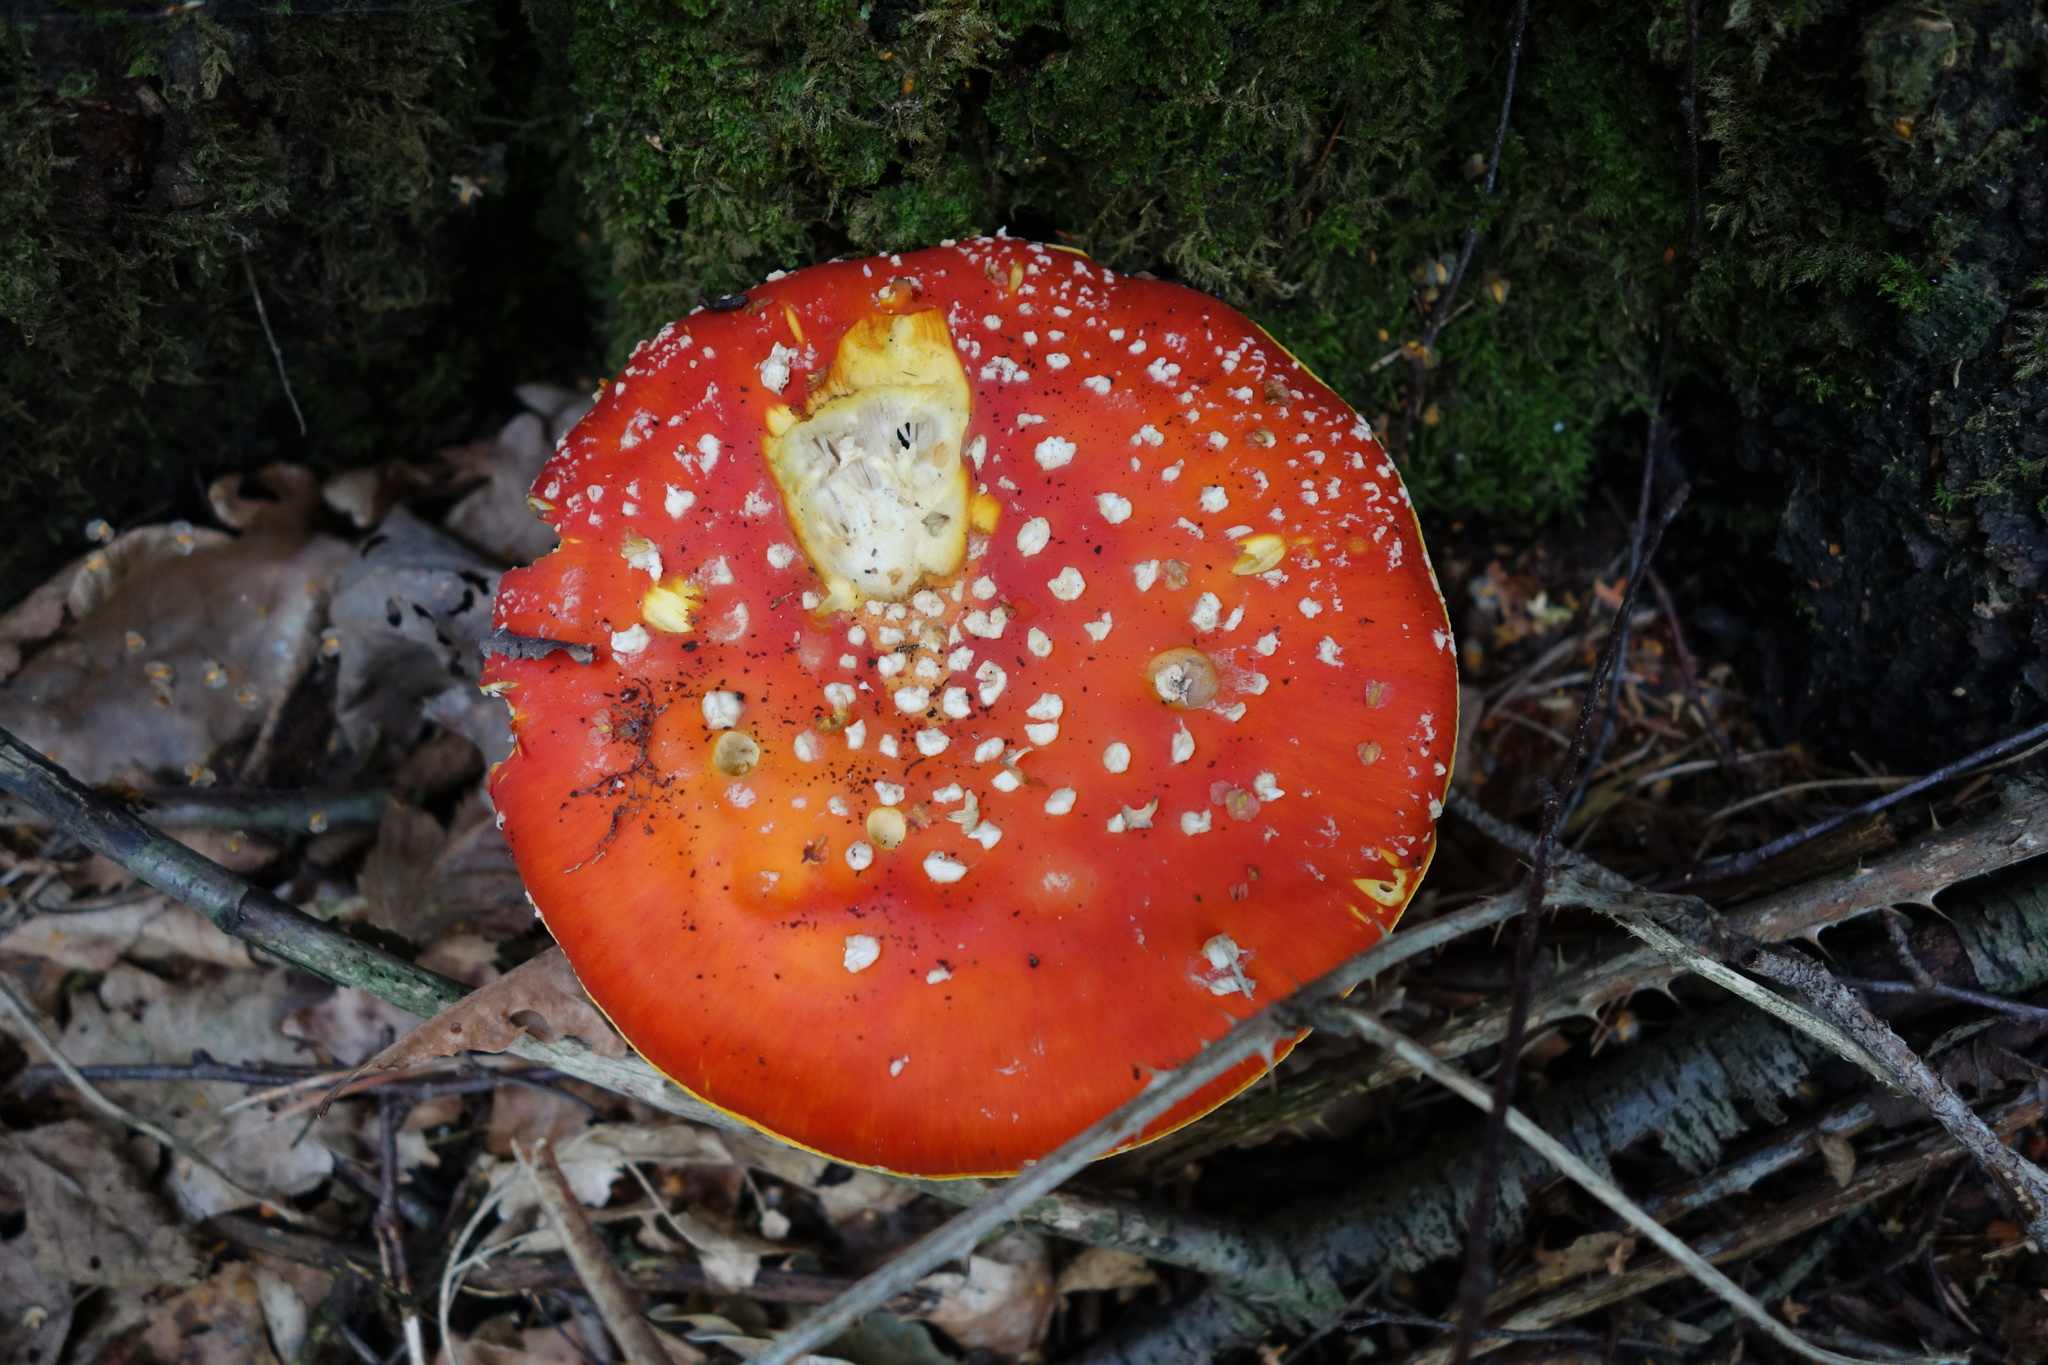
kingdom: Fungi
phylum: Basidiomycota
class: Agaricomycetes
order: Agaricales
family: Amanitaceae
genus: Amanita
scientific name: Amanita muscaria
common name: Fly agaric
